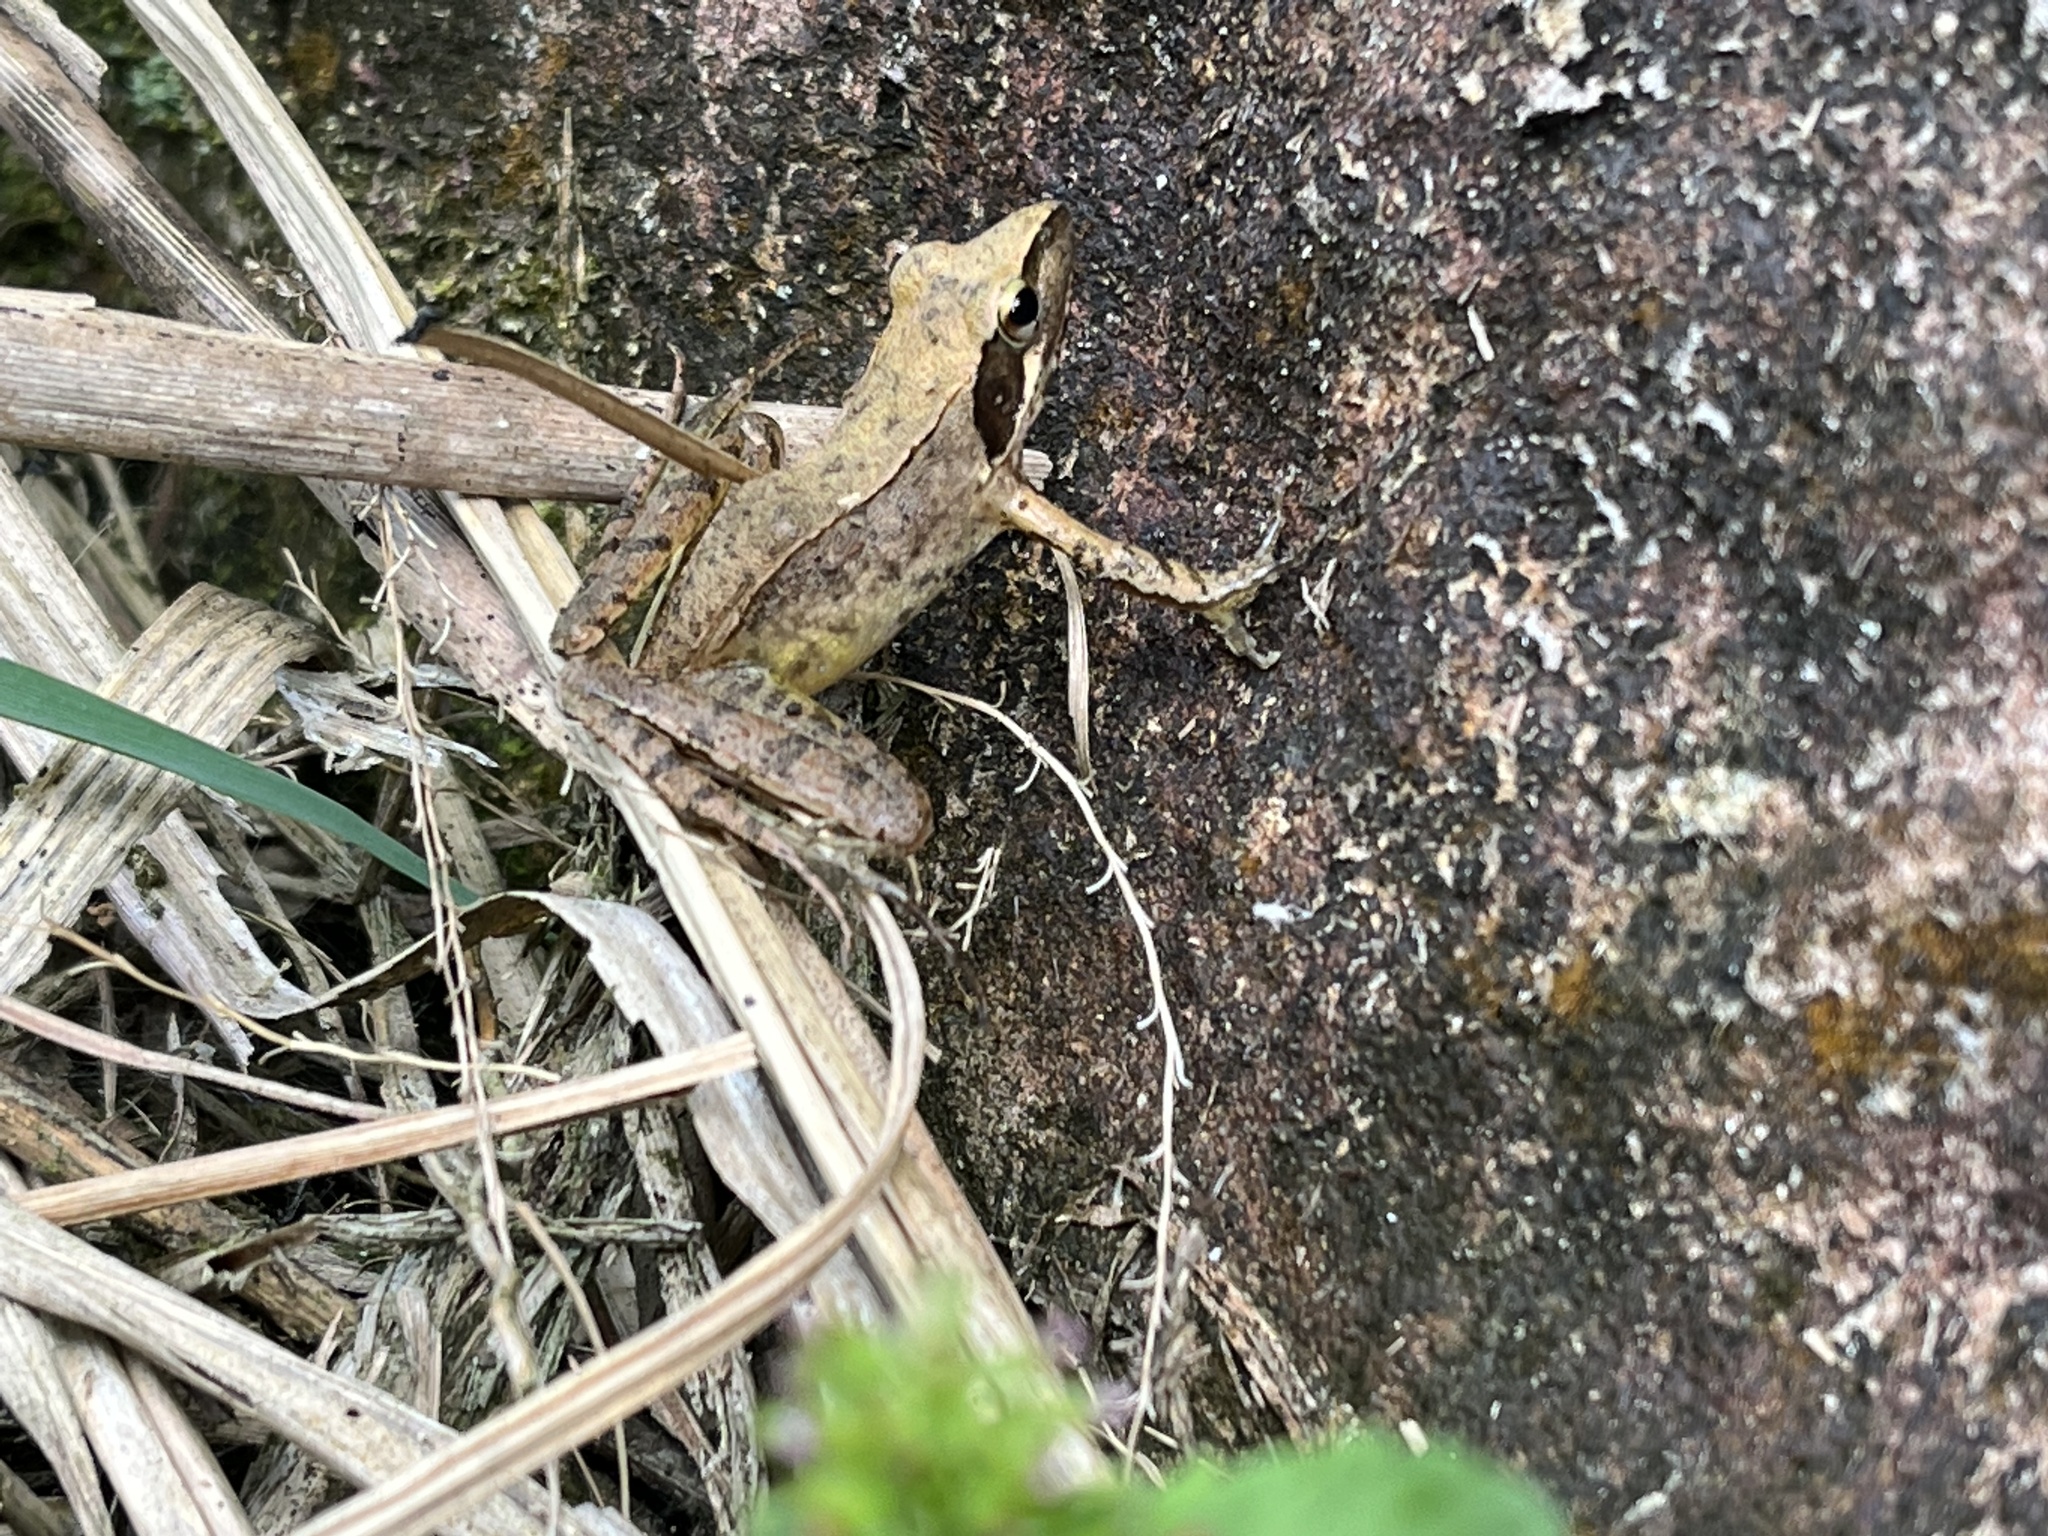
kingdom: Animalia
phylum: Chordata
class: Amphibia
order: Anura
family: Ranidae
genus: Rana
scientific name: Rana longicrus
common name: Long-legged brown frog
